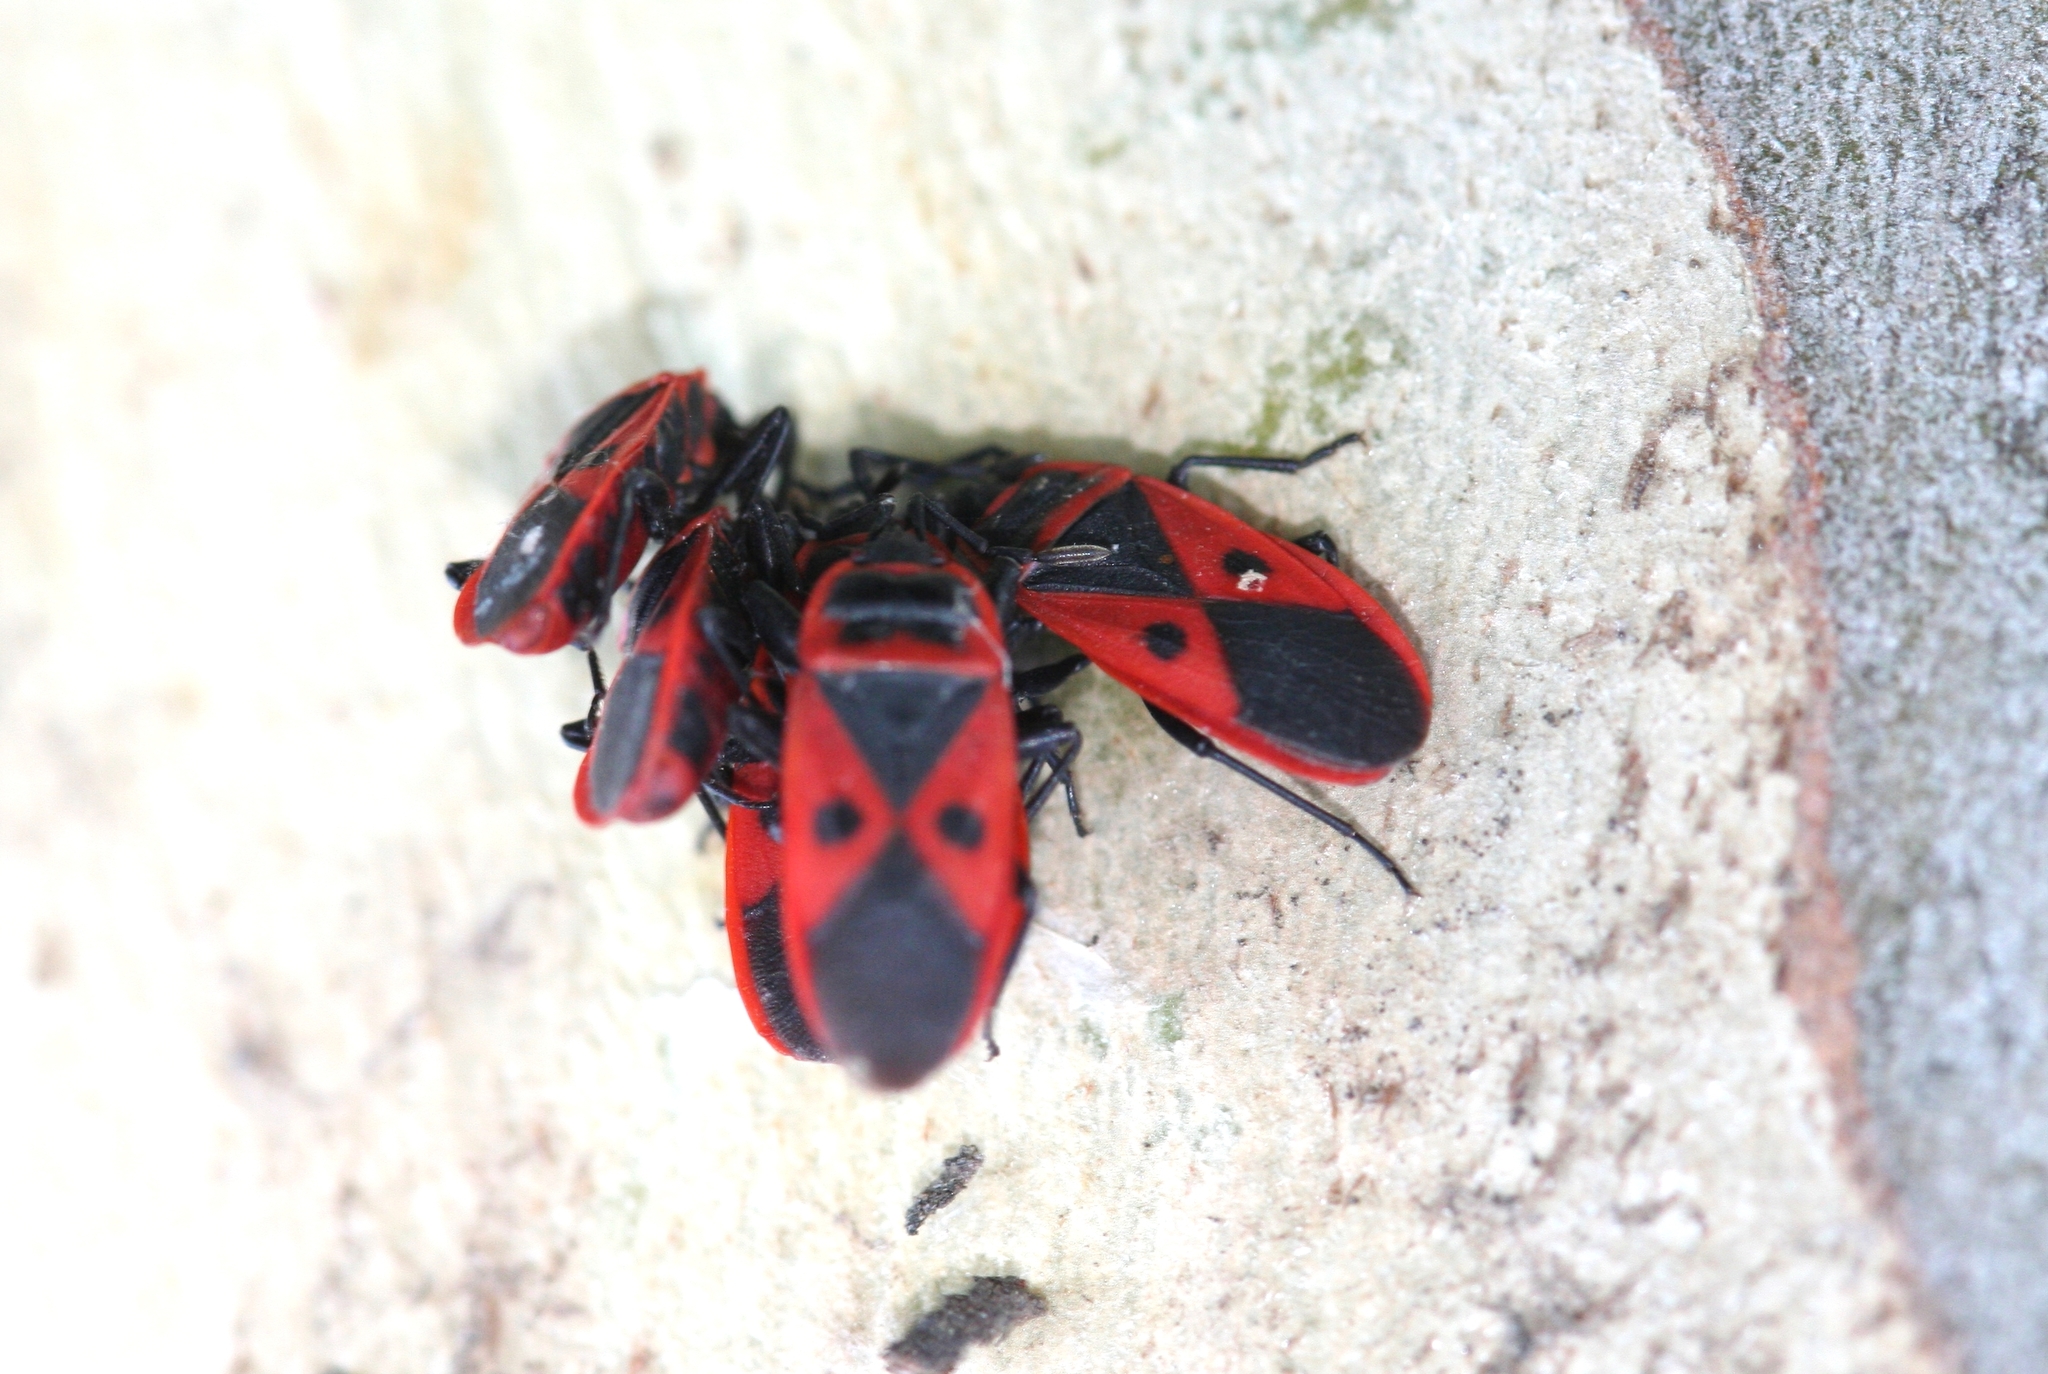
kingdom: Animalia
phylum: Arthropoda
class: Insecta
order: Hemiptera
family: Pyrrhocoridae
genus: Scantius
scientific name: Scantius aegyptius
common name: Red bug
